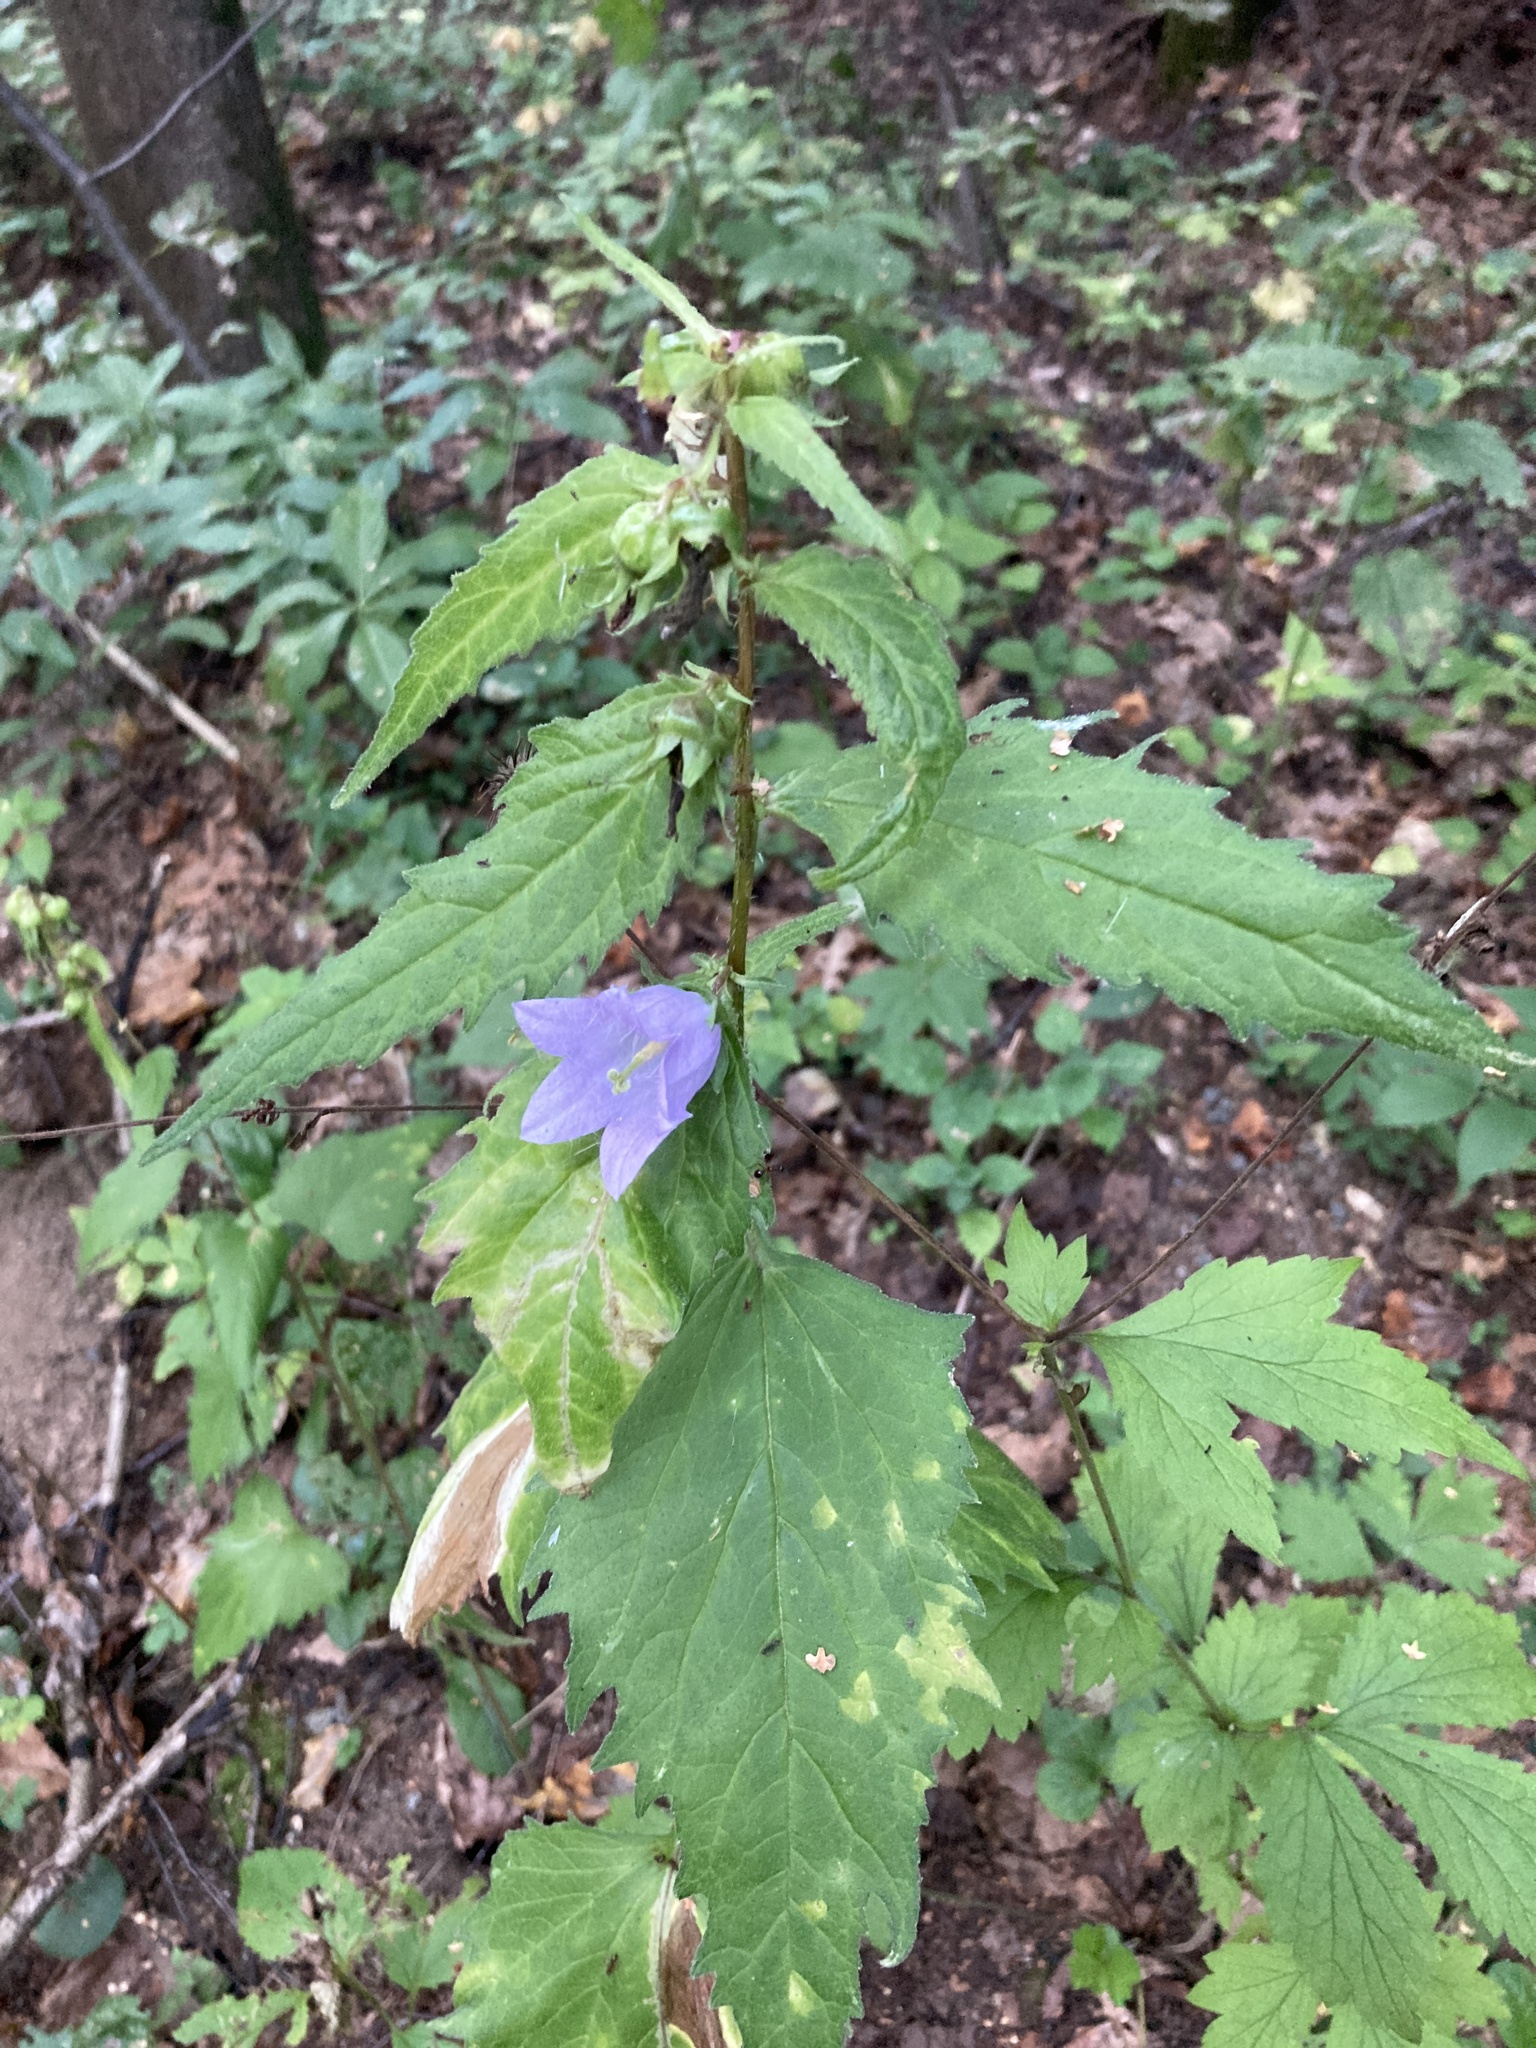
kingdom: Plantae
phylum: Tracheophyta
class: Magnoliopsida
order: Asterales
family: Campanulaceae
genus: Campanula
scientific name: Campanula trachelium
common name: Nettle-leaved bellflower
